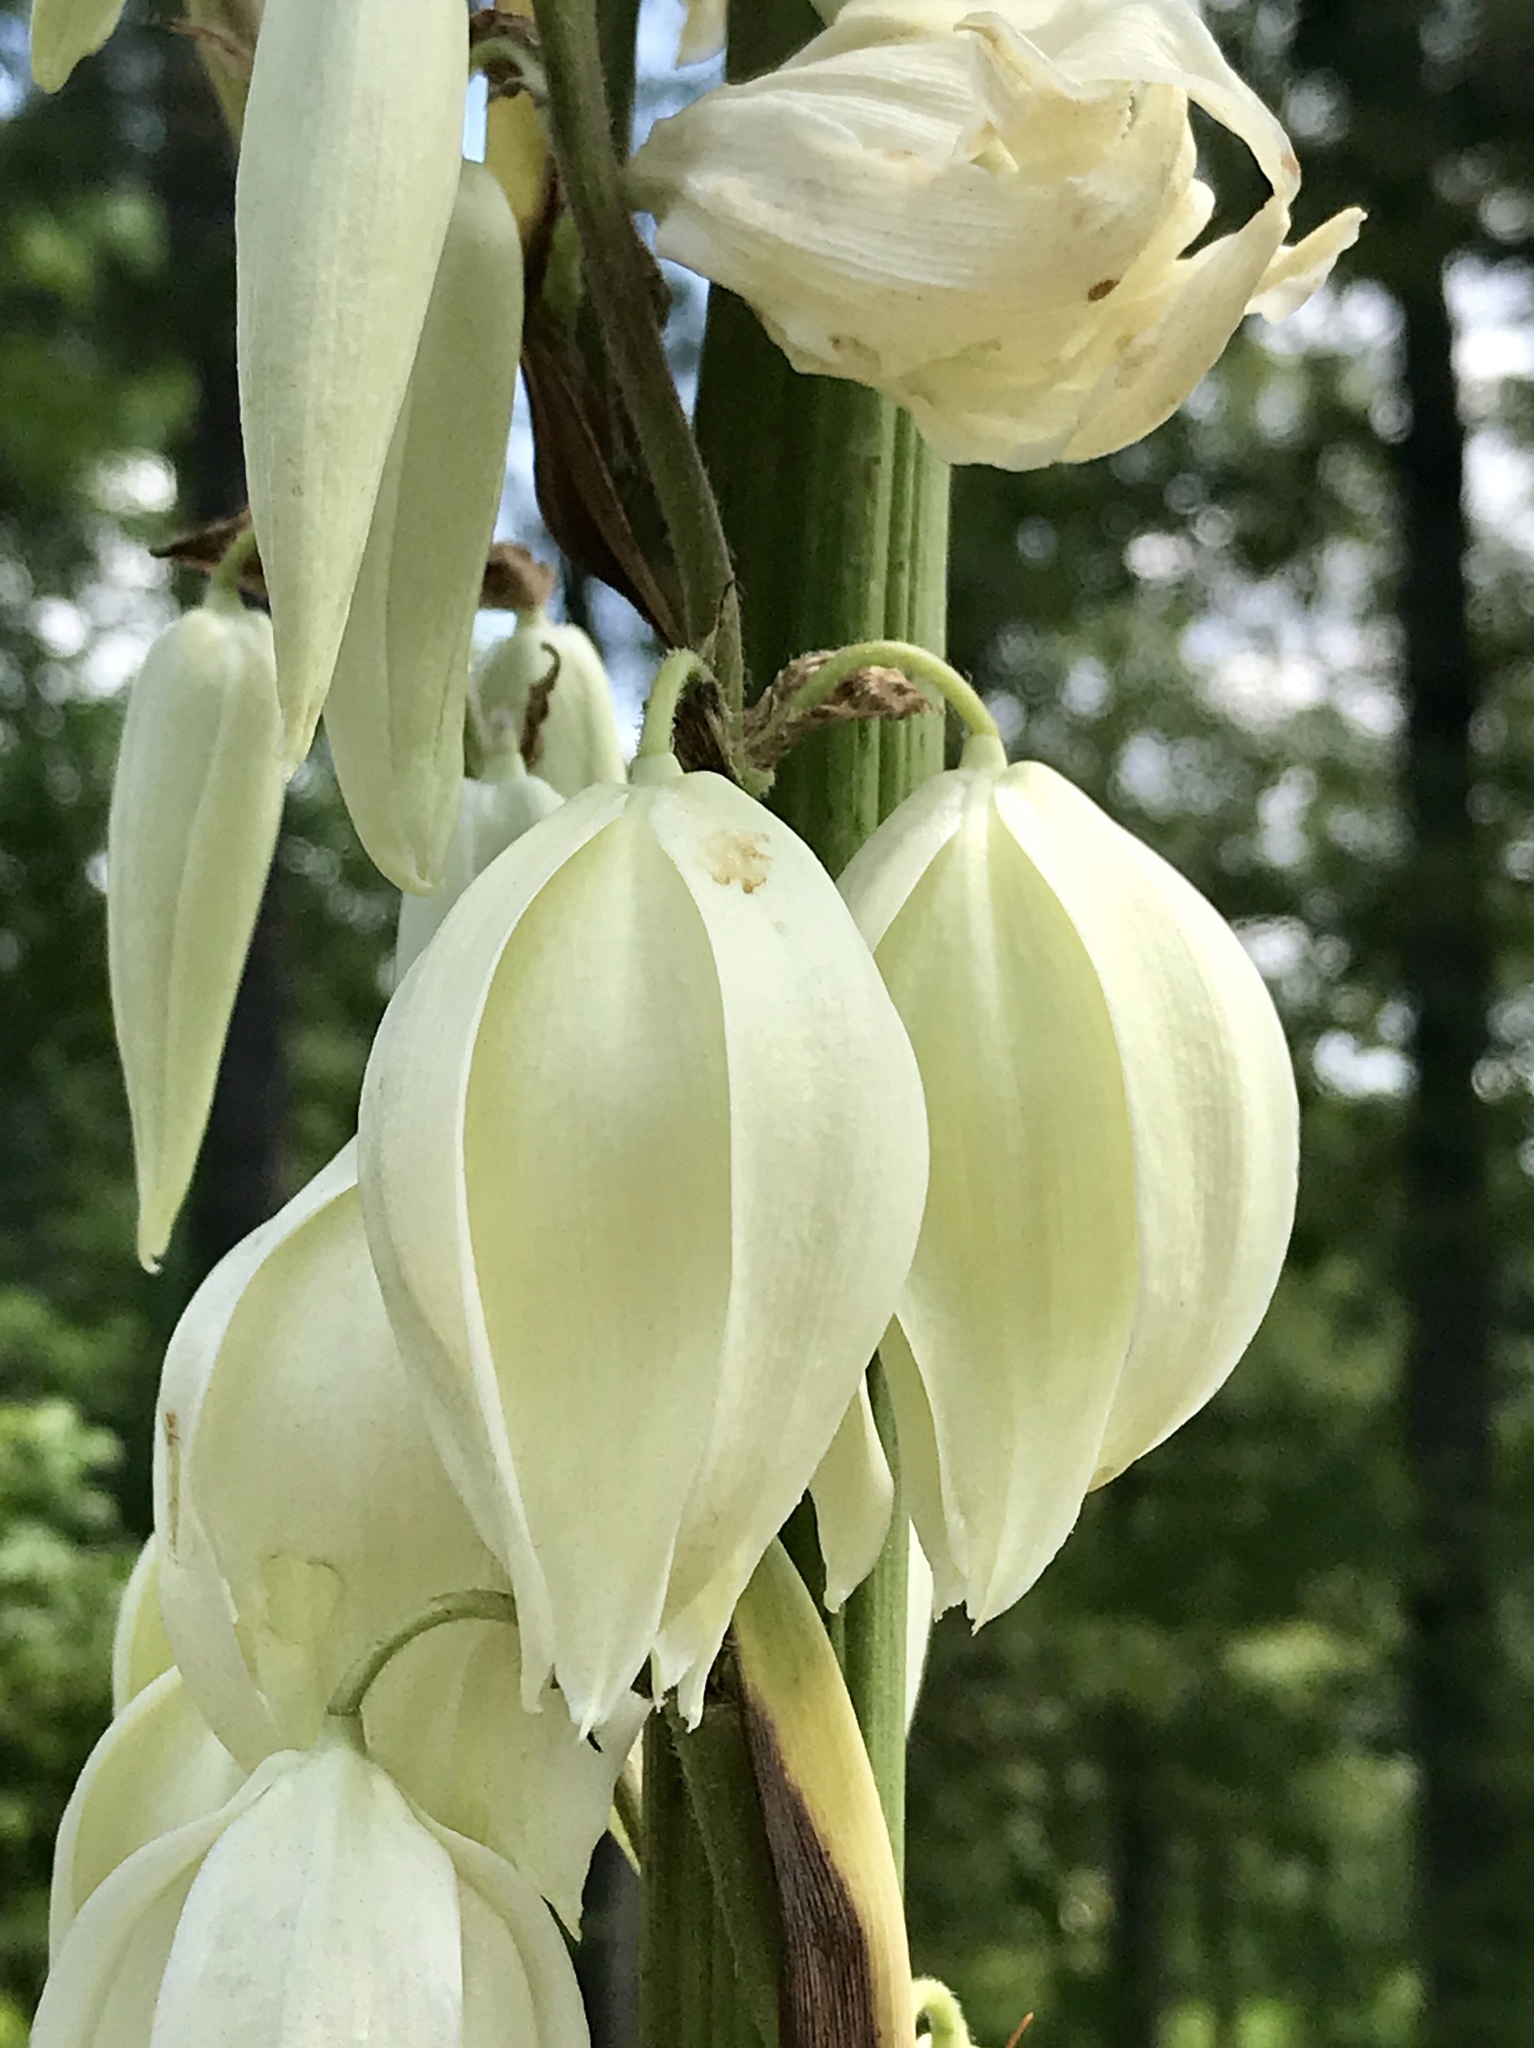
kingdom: Plantae
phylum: Tracheophyta
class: Liliopsida
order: Asparagales
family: Asparagaceae
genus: Yucca
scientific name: Yucca cernua
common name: Nodding yucca
